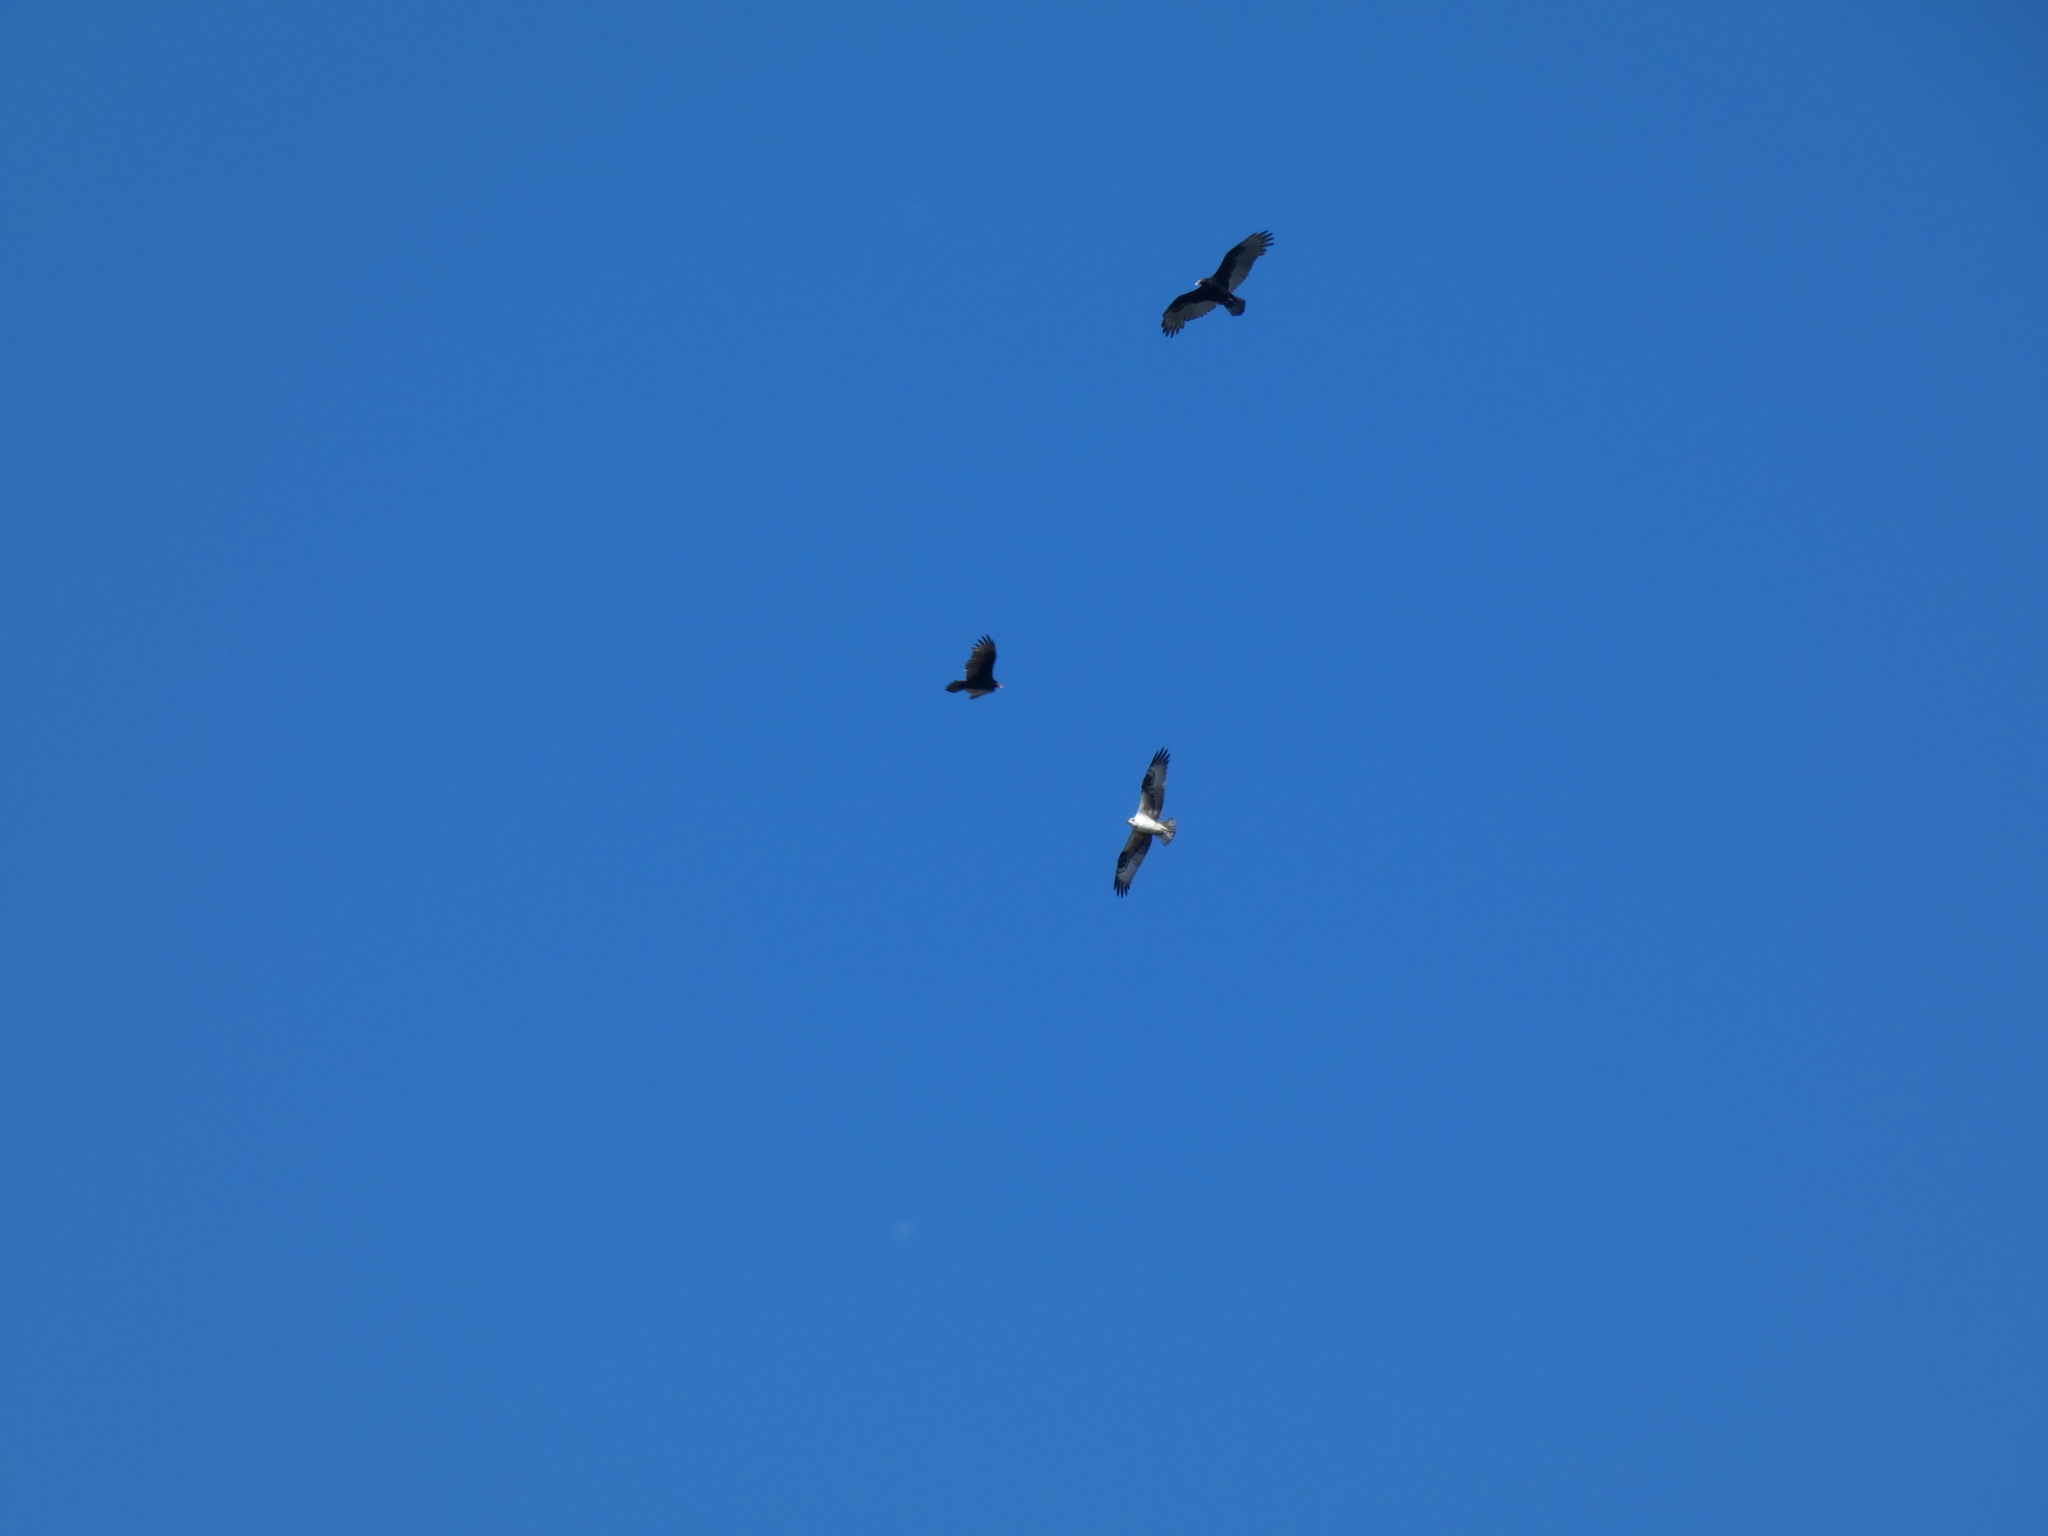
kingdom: Animalia
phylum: Chordata
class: Aves
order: Accipitriformes
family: Pandionidae
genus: Pandion
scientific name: Pandion haliaetus
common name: Osprey
